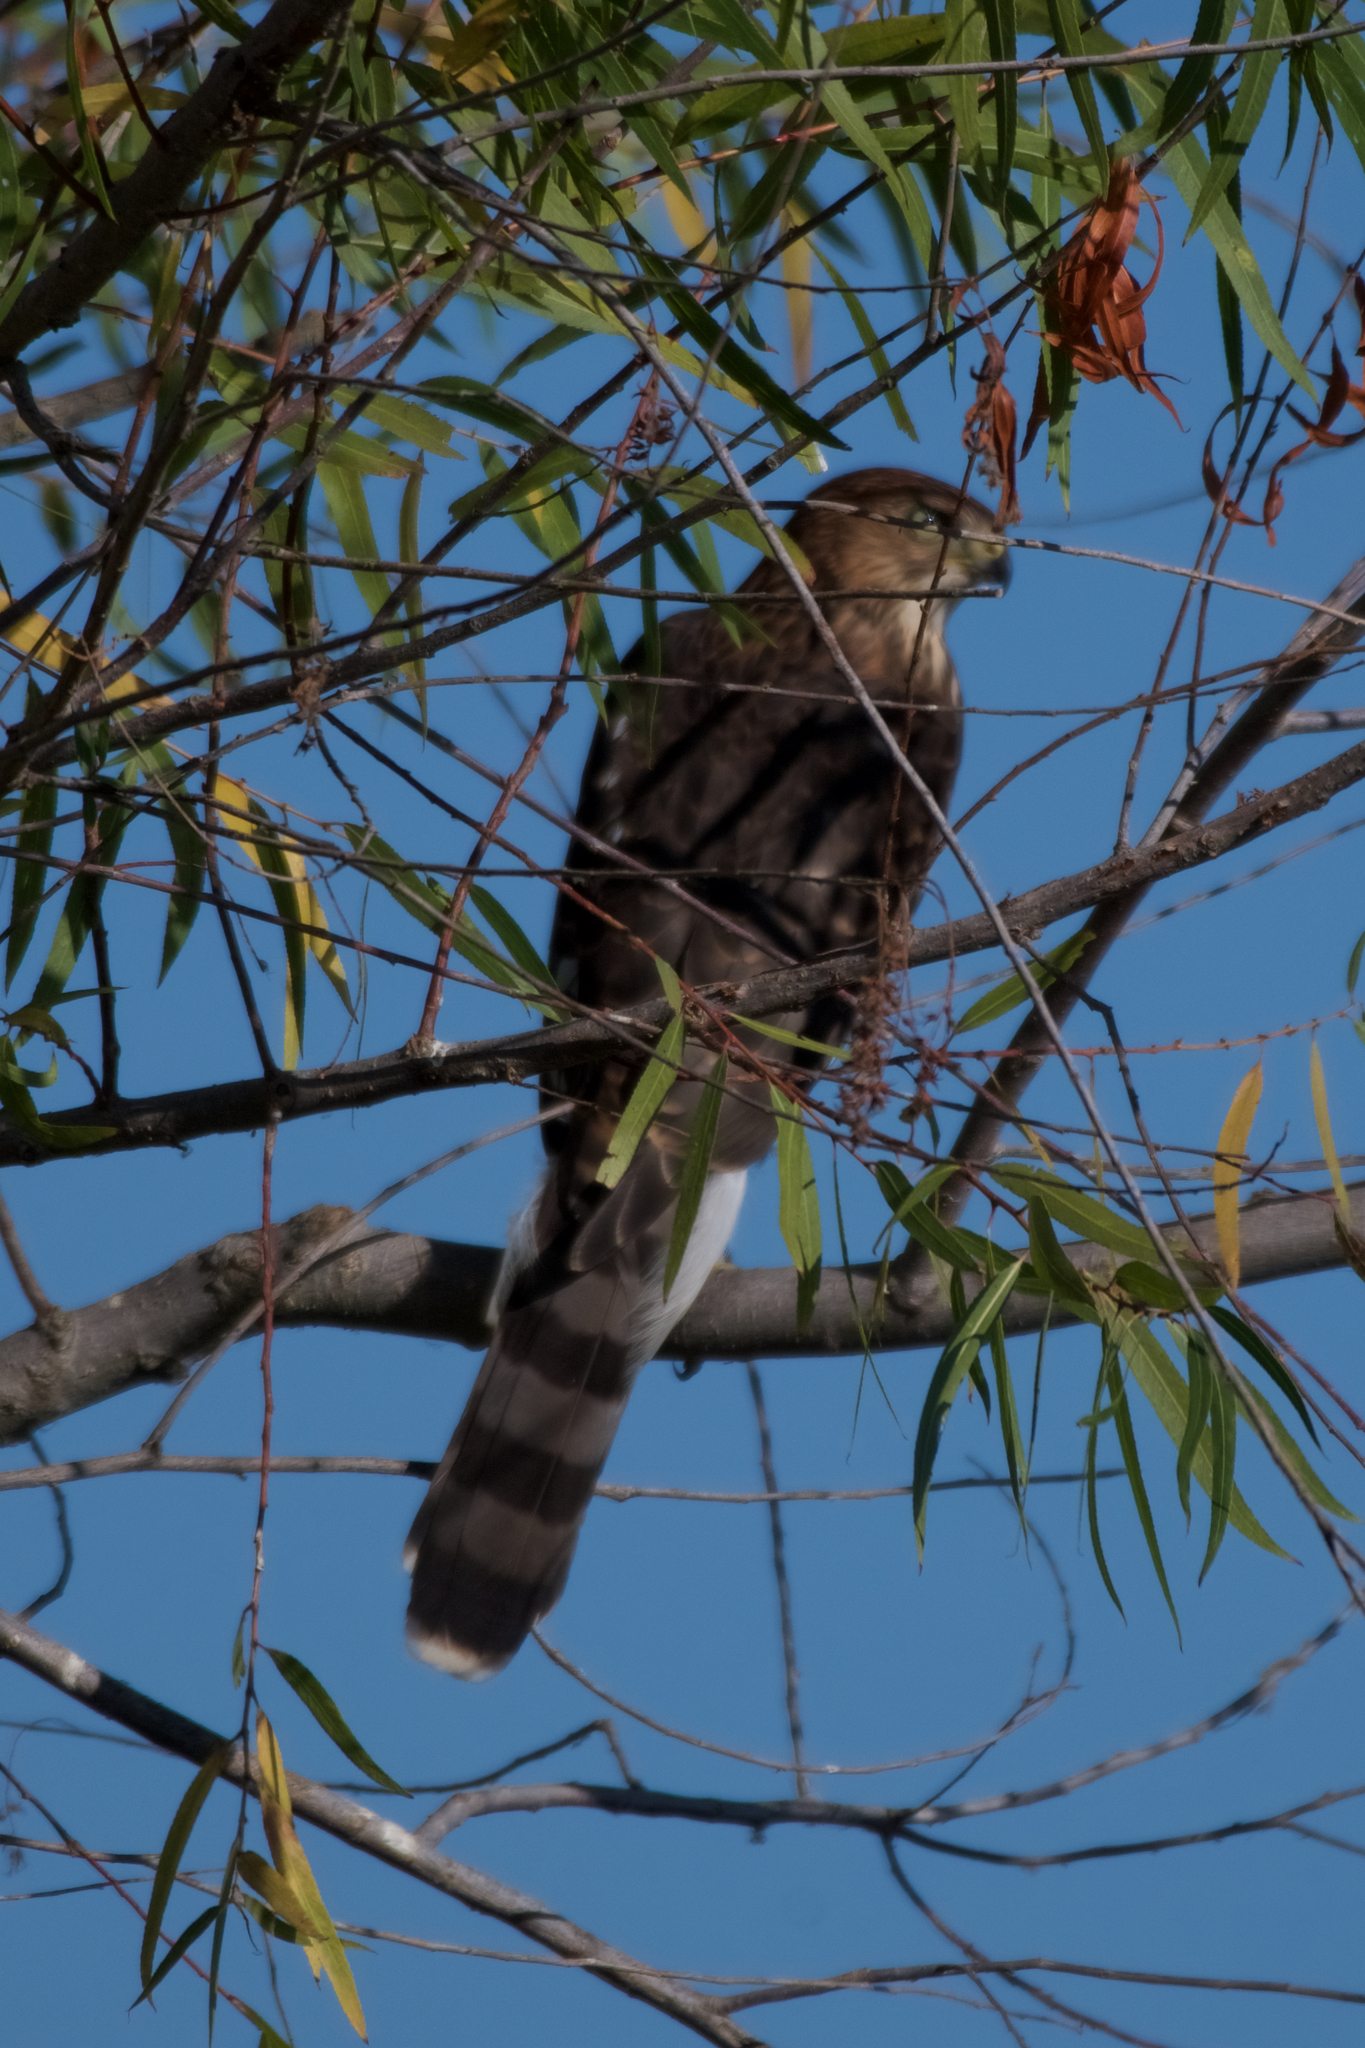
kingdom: Animalia
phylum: Chordata
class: Aves
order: Accipitriformes
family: Accipitridae
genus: Accipiter
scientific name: Accipiter cooperii
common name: Cooper's hawk
